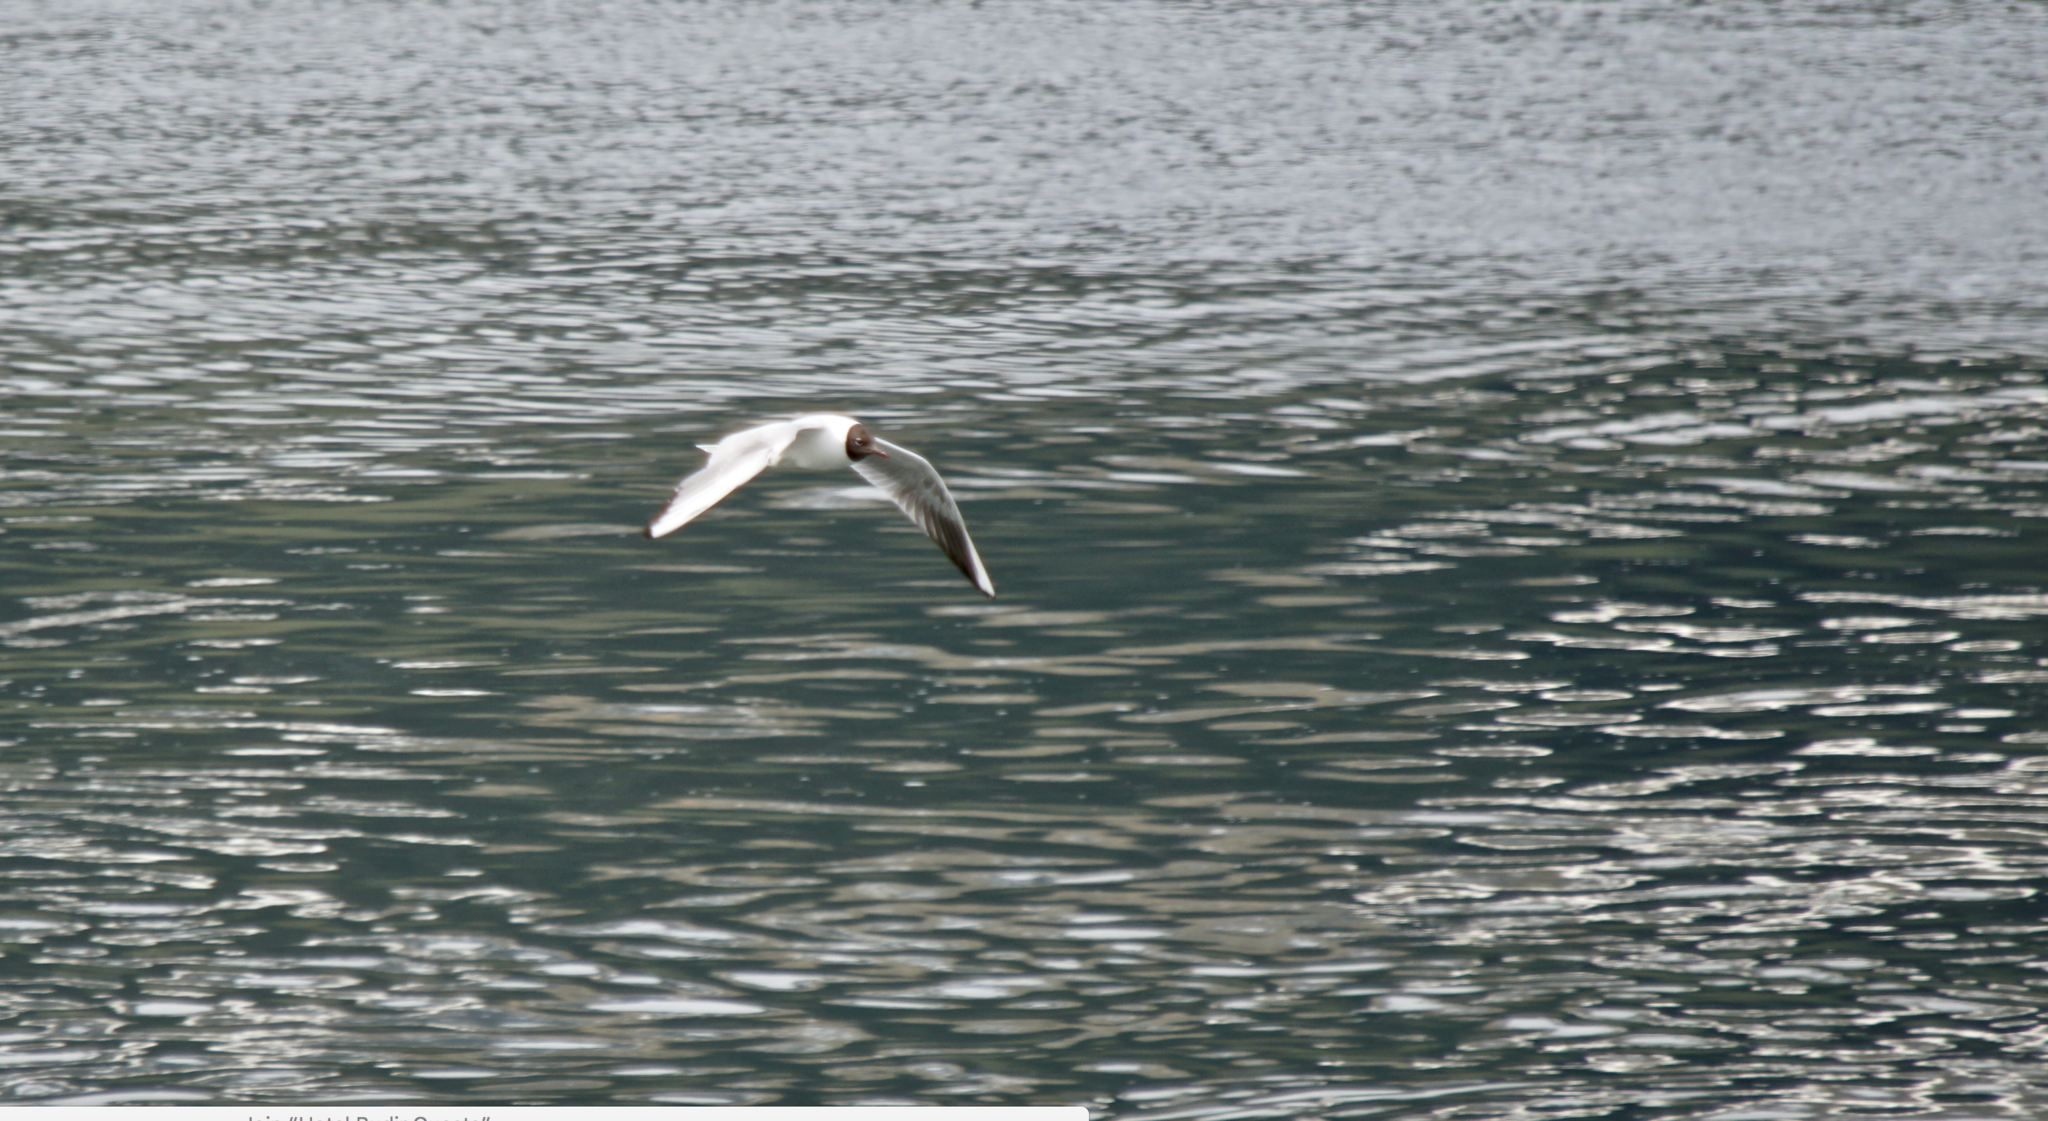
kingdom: Animalia
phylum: Chordata
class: Aves
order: Charadriiformes
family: Laridae
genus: Chroicocephalus
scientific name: Chroicocephalus ridibundus
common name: Black-headed gull
